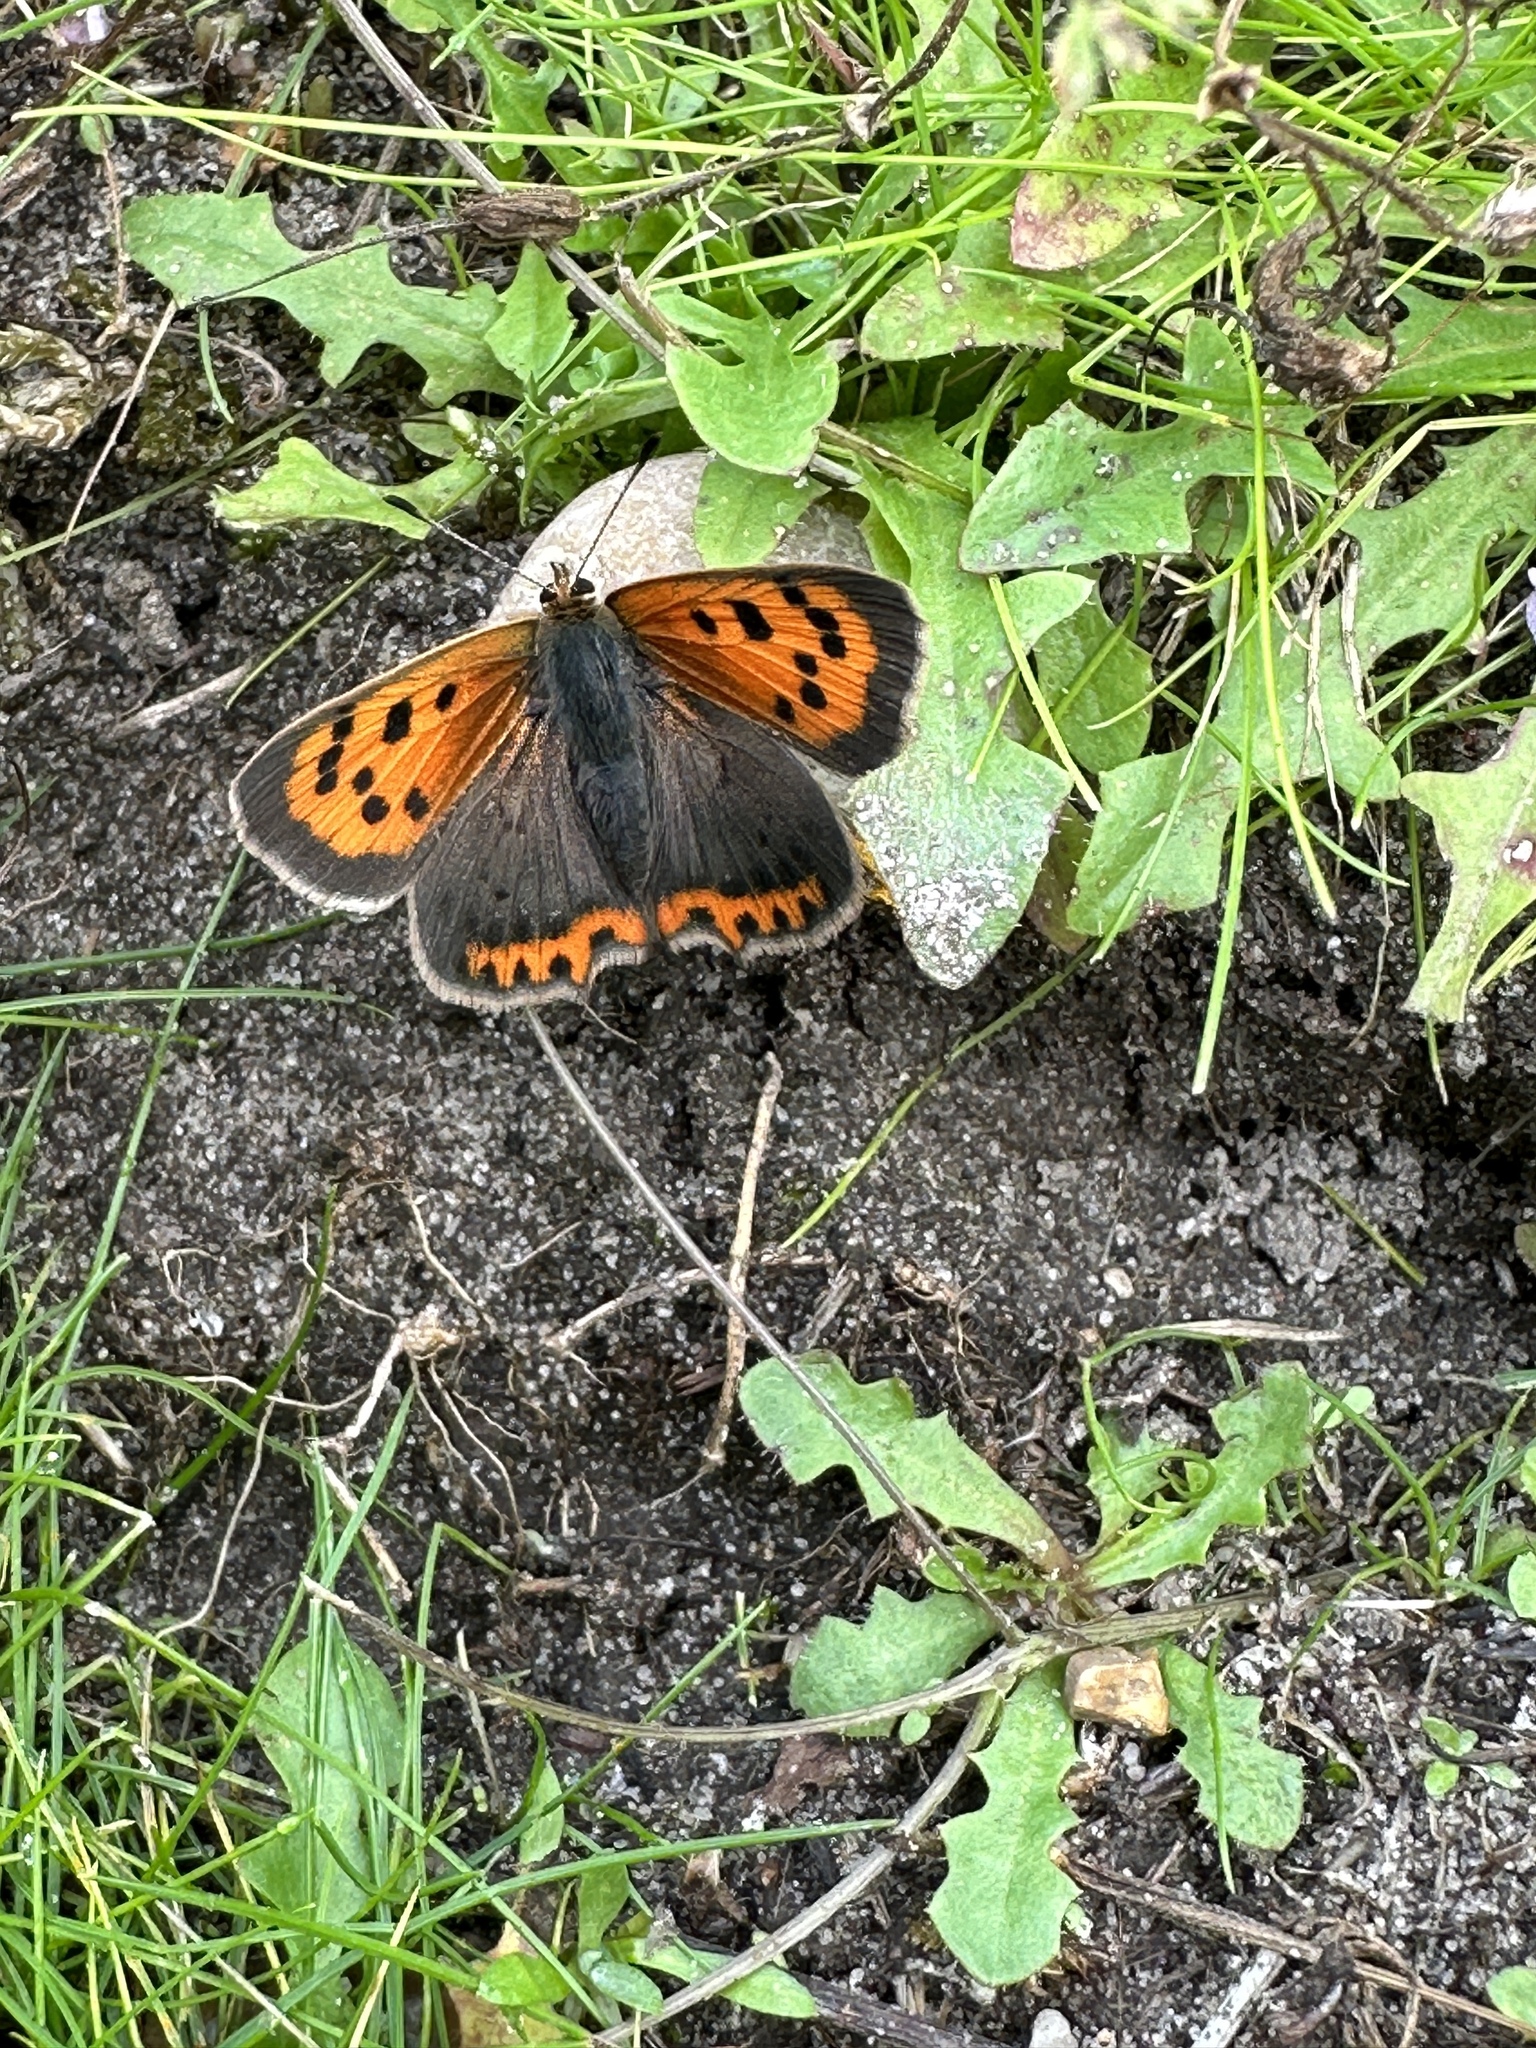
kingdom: Animalia
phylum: Arthropoda
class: Insecta
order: Lepidoptera
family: Lycaenidae
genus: Lycaena
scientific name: Lycaena phlaeas
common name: Small copper
